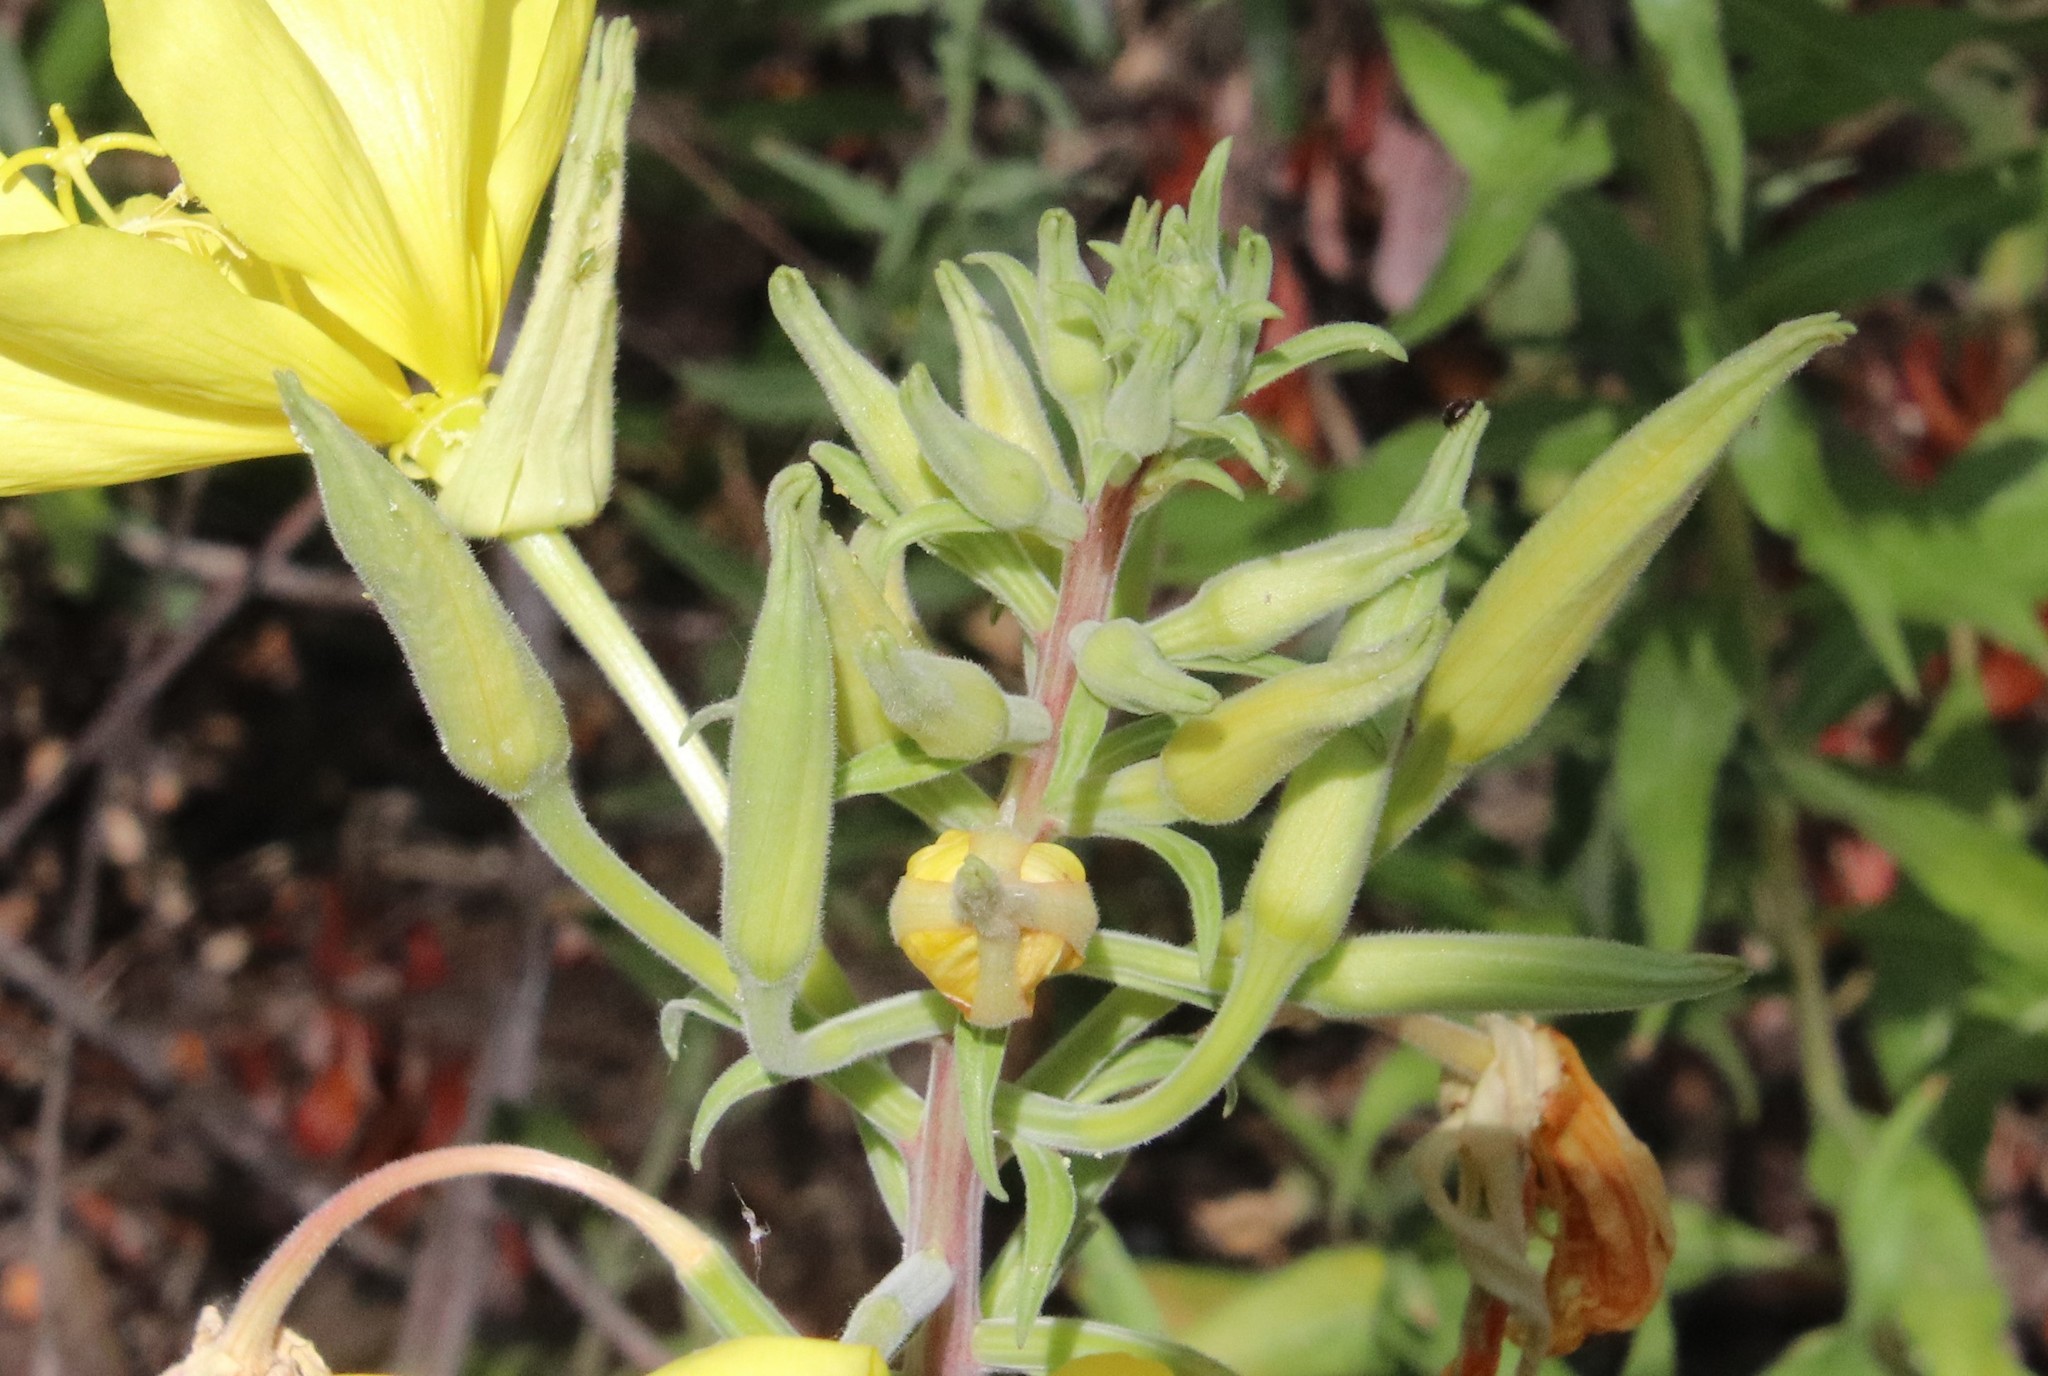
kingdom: Plantae
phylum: Tracheophyta
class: Magnoliopsida
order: Myrtales
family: Onagraceae
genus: Oenothera
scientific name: Oenothera elata
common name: Hooker's evening-primrose
